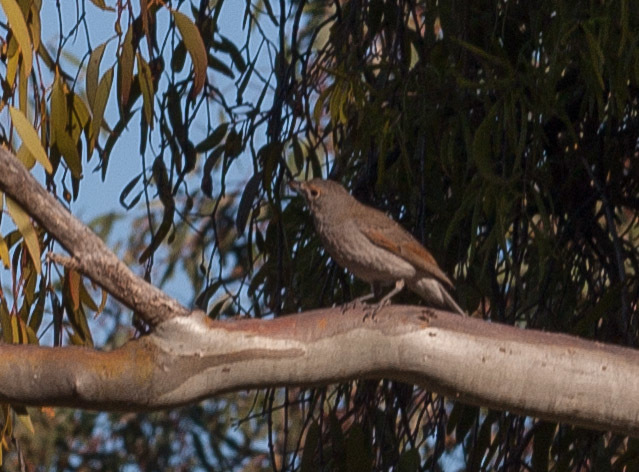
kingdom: Animalia
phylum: Chordata
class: Aves
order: Passeriformes
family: Pachycephalidae
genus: Colluricincla
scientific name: Colluricincla harmonica
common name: Grey shrikethrush
